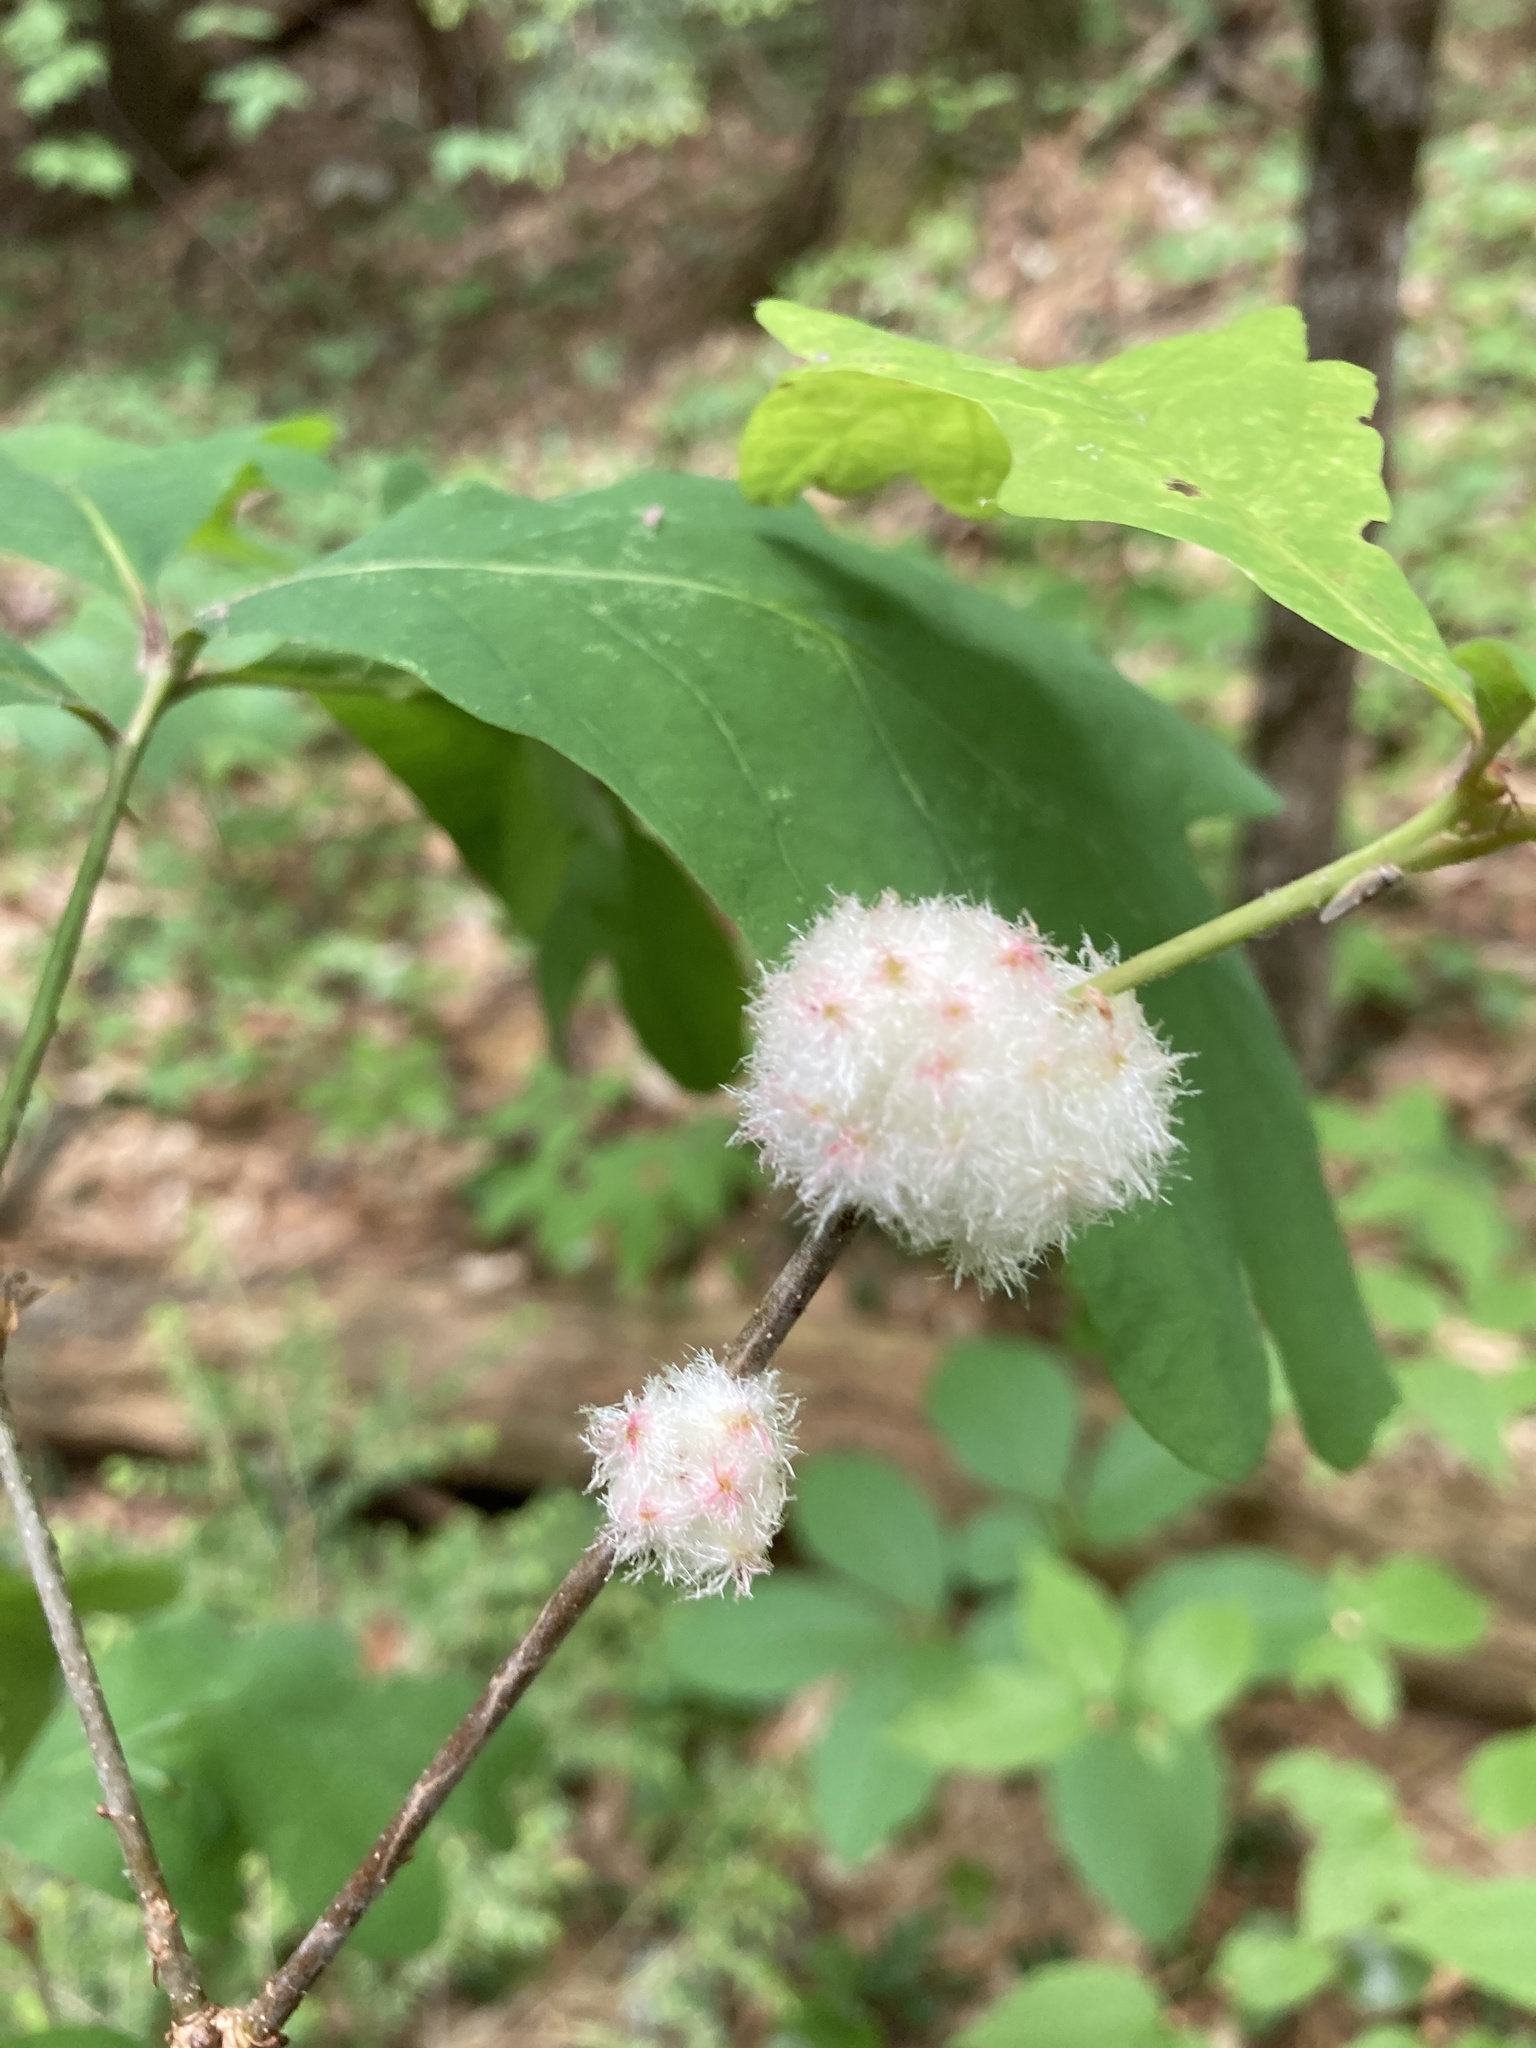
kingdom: Animalia
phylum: Arthropoda
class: Insecta
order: Hymenoptera
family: Cynipidae
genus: Callirhytis
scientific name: Callirhytis
